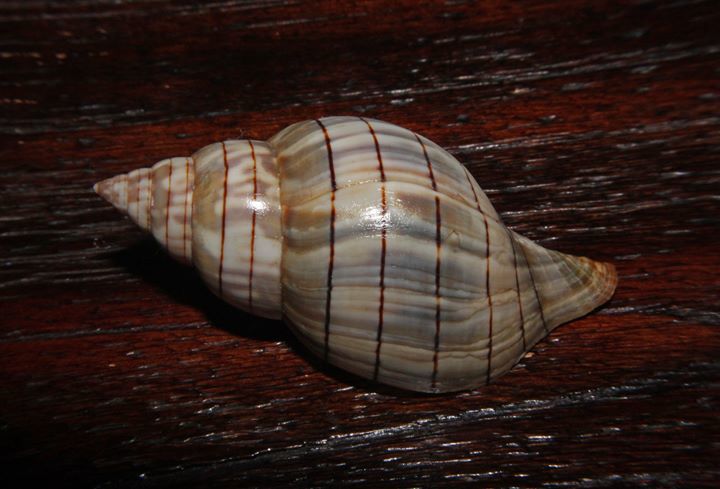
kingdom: Animalia
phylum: Mollusca
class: Gastropoda
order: Neogastropoda
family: Fasciolariidae
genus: Cinctura
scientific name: Cinctura hunteria
